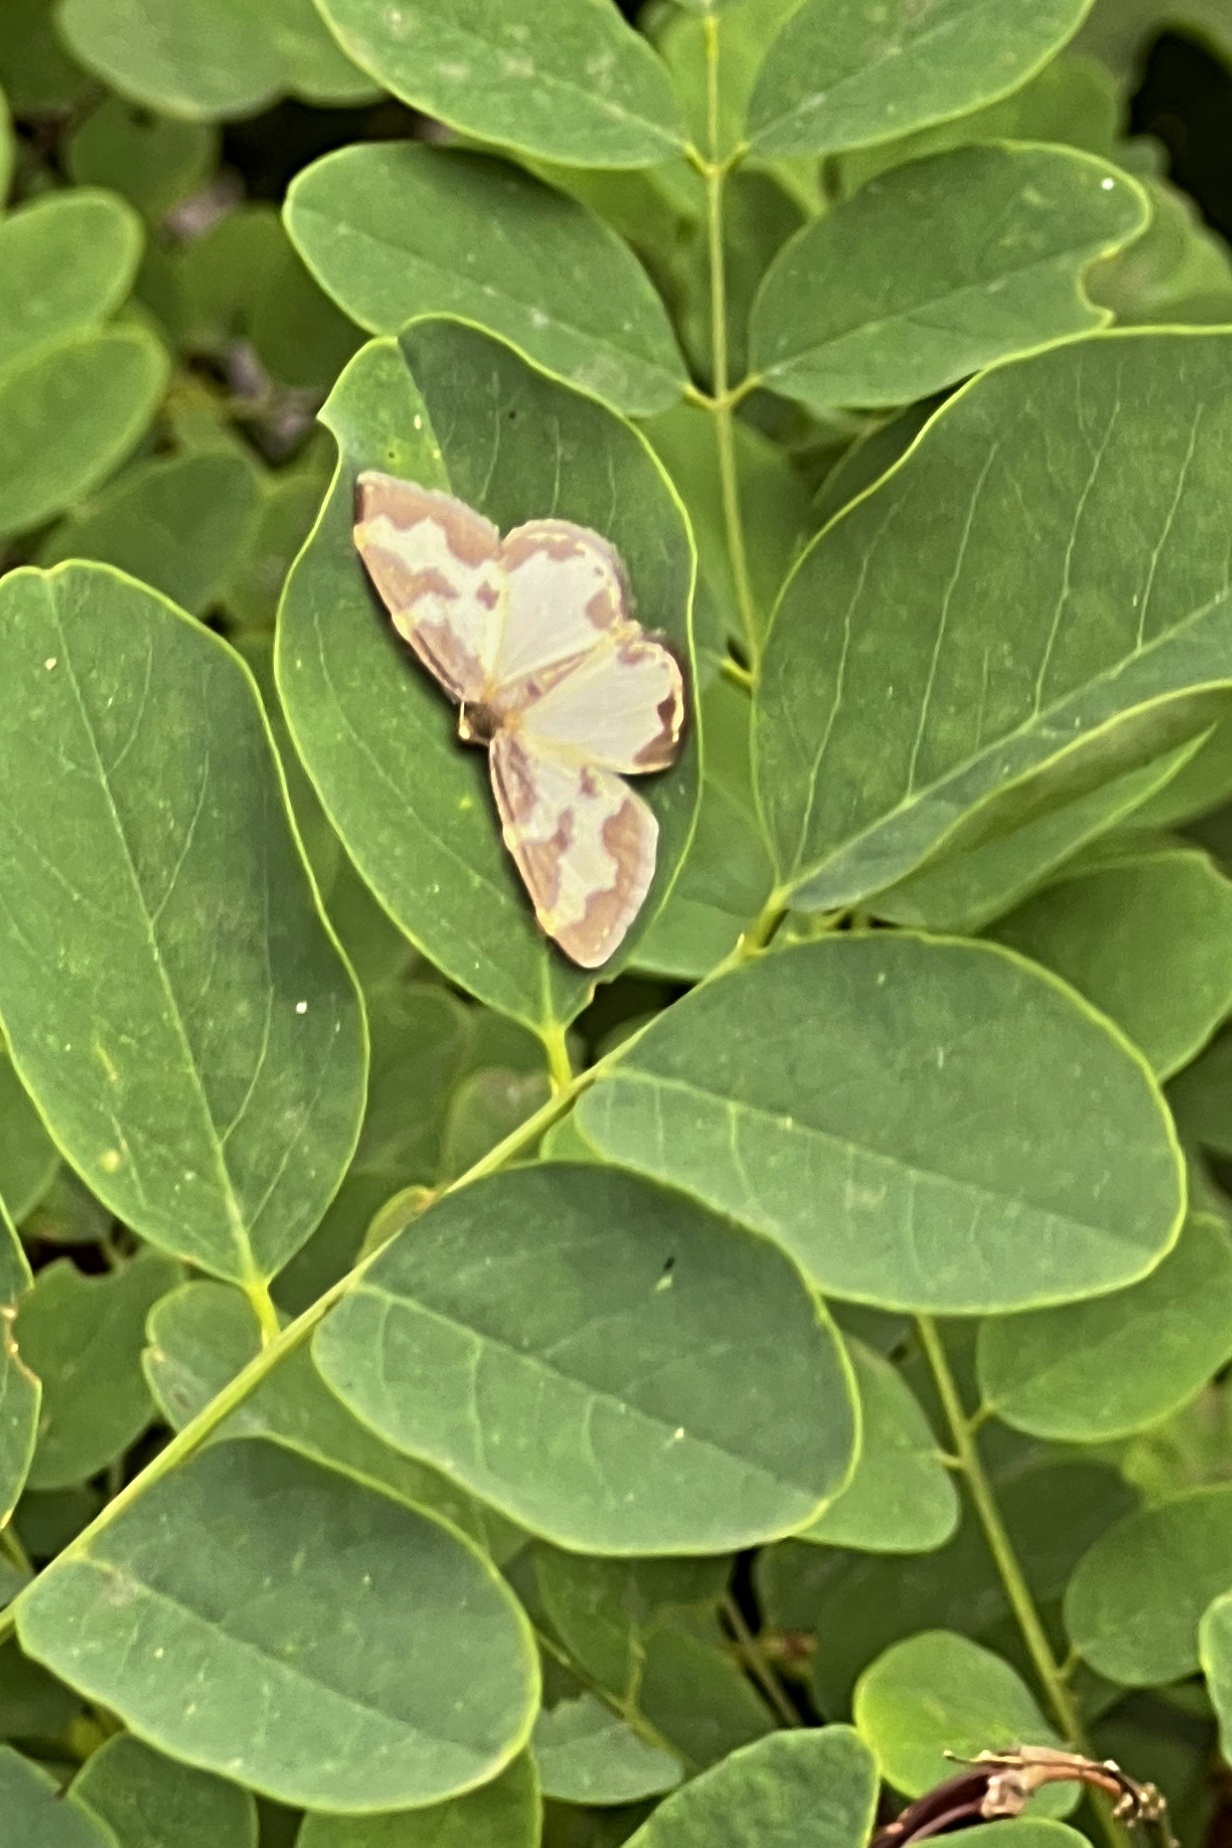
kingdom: Animalia
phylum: Arthropoda
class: Insecta
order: Lepidoptera
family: Geometridae
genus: Lomaspilis
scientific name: Lomaspilis marginata
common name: Clouded border
